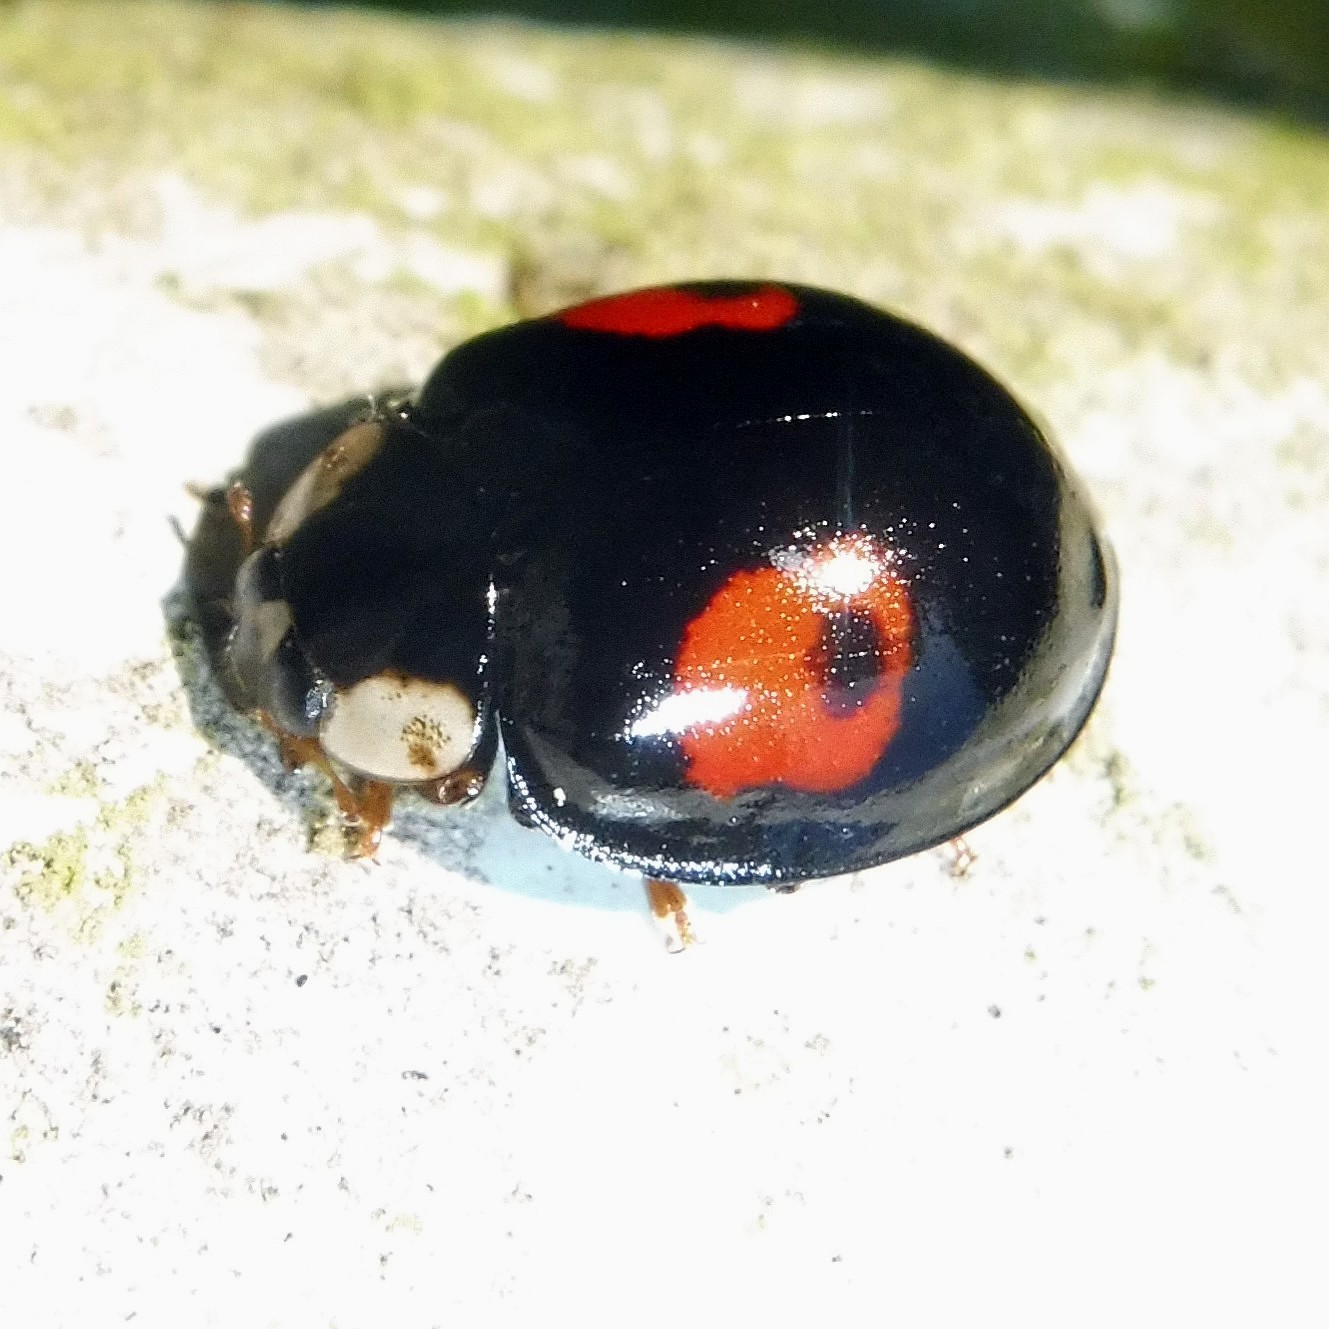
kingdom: Animalia
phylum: Arthropoda
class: Insecta
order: Coleoptera
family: Coccinellidae
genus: Harmonia
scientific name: Harmonia axyridis
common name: Harlequin ladybird
